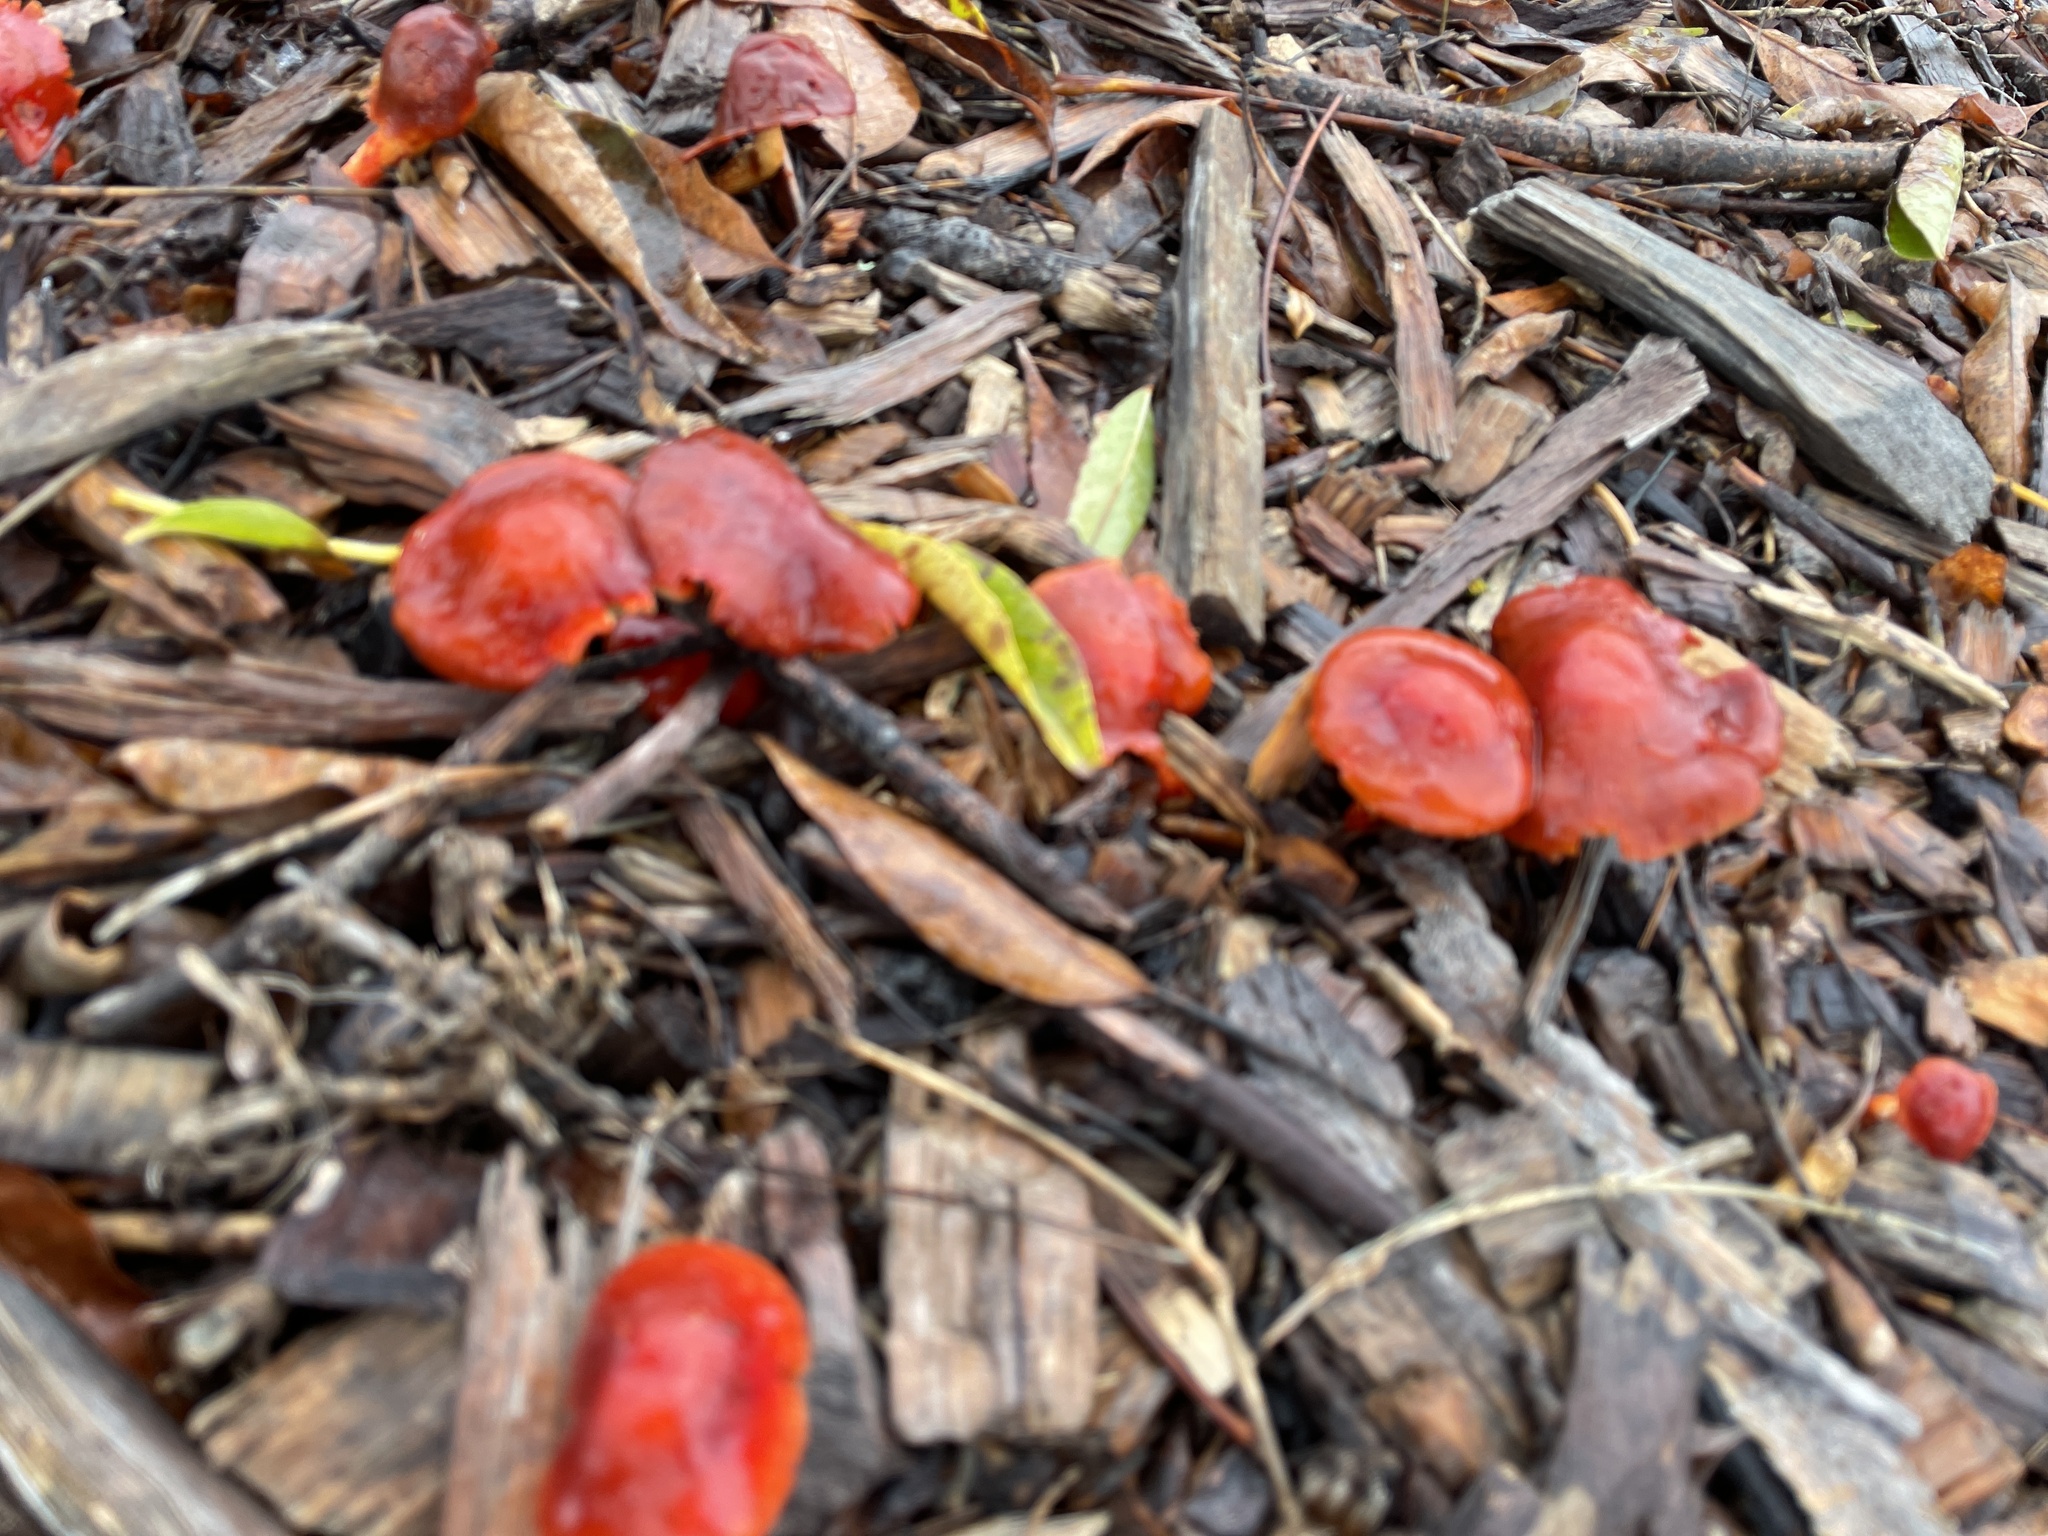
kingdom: Fungi
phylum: Basidiomycota
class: Agaricomycetes
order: Agaricales
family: Strophariaceae
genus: Leratiomyces
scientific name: Leratiomyces ceres
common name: Redlead roundhead
